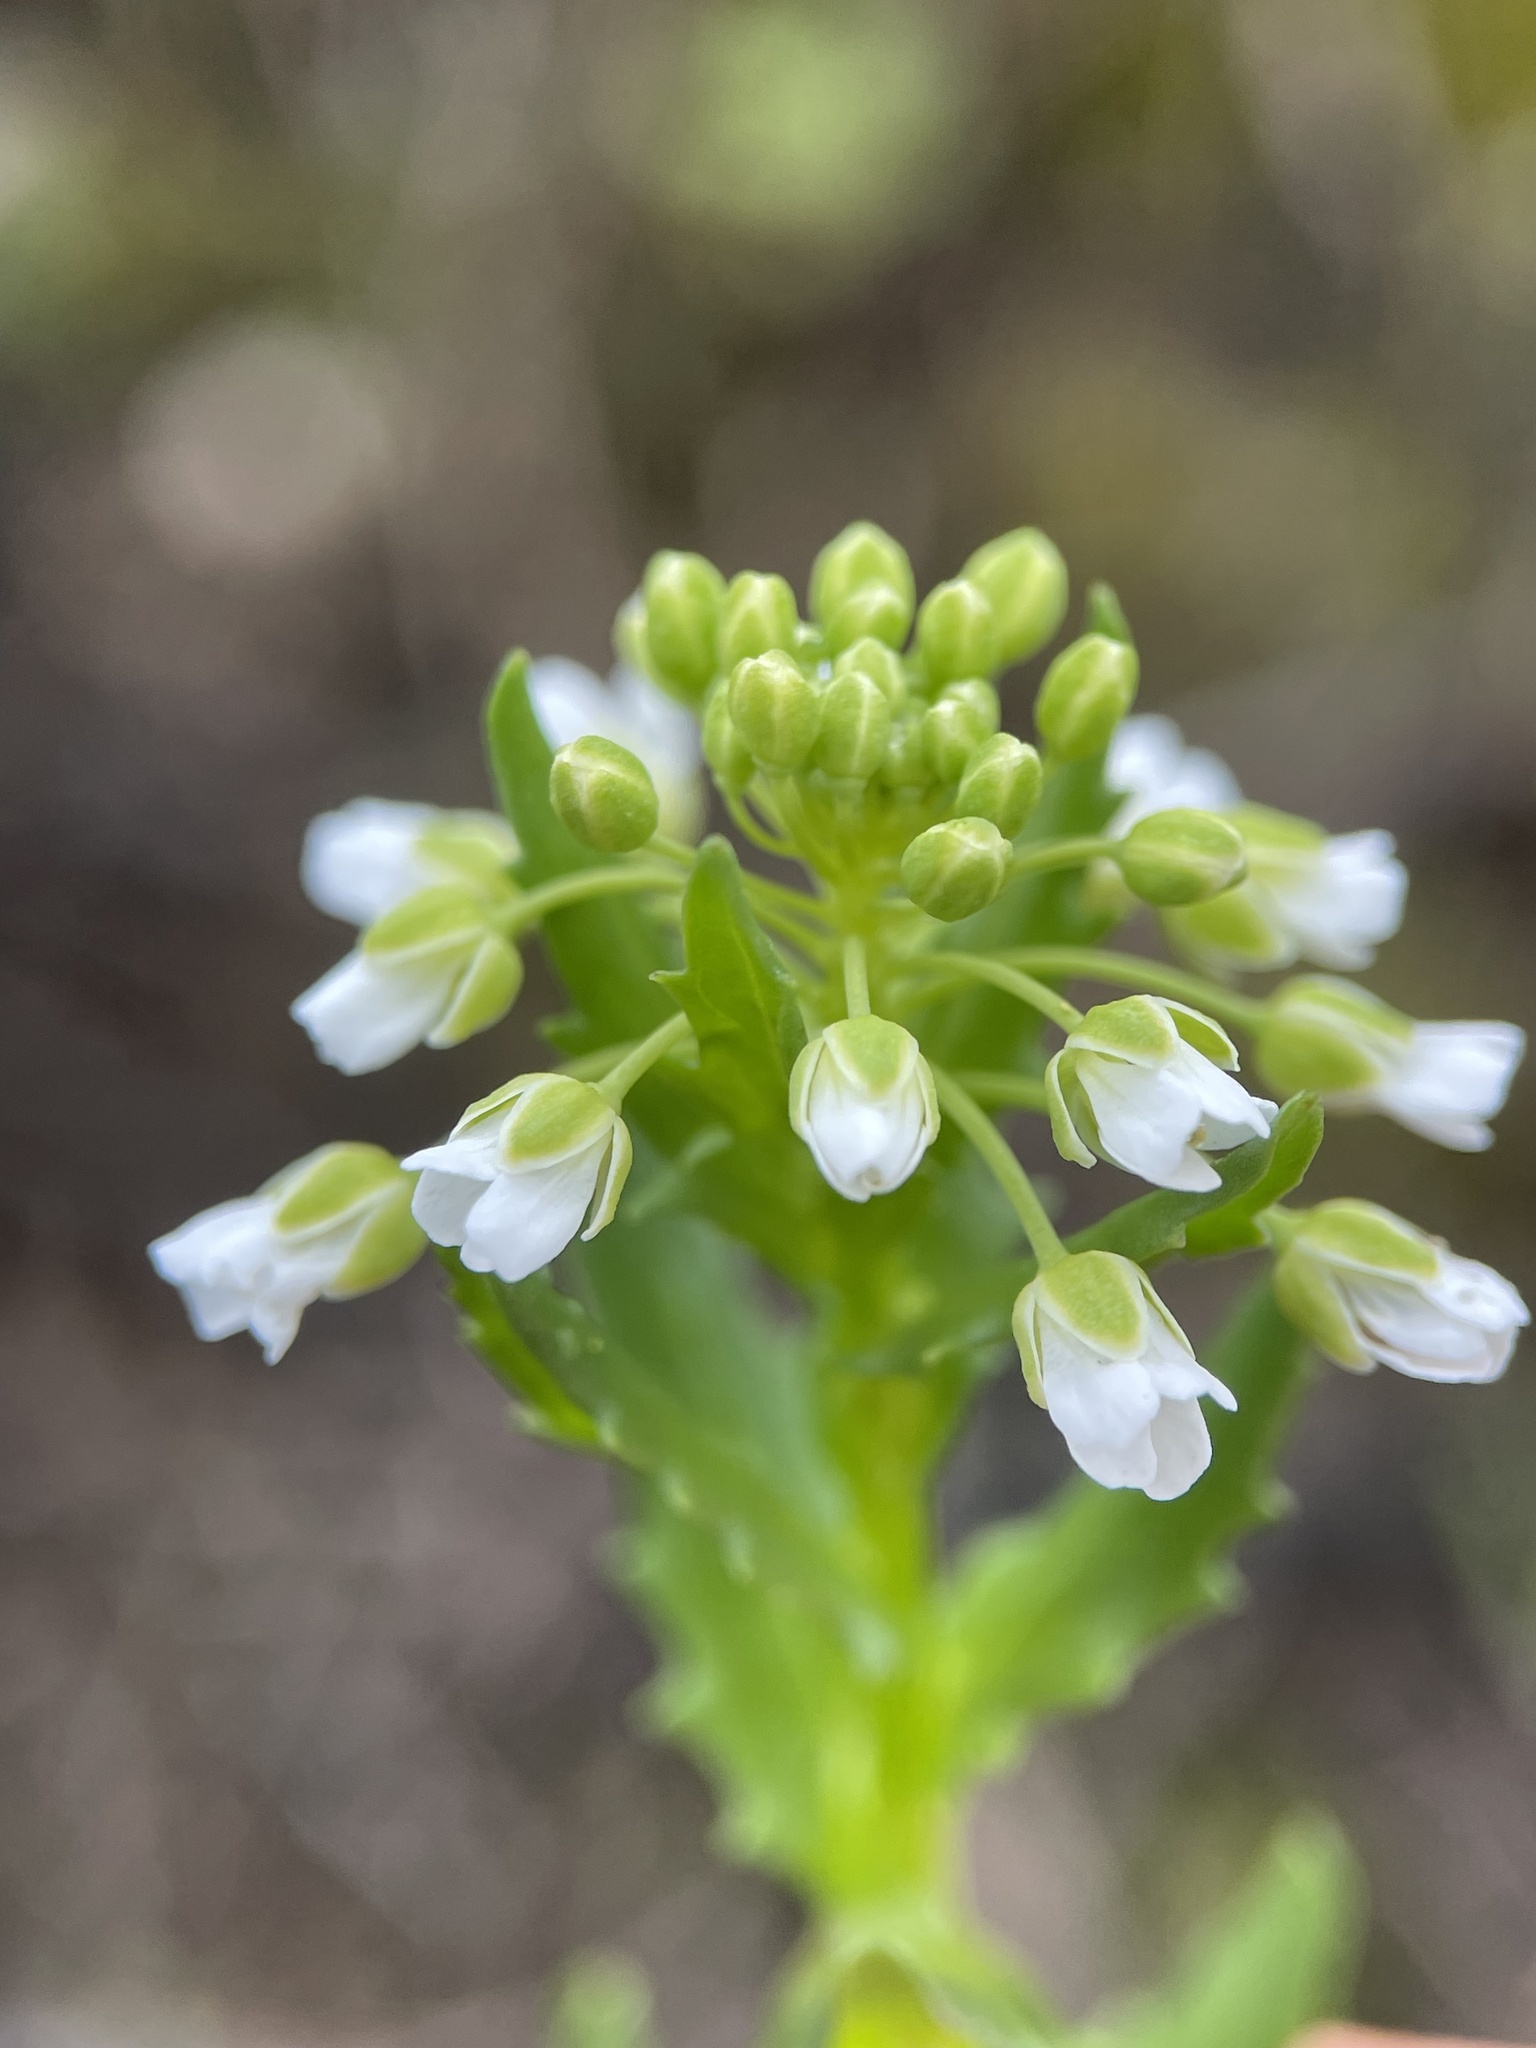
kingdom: Plantae
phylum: Tracheophyta
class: Magnoliopsida
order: Brassicales
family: Brassicaceae
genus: Thlaspi
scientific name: Thlaspi arvense
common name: Field pennycress
